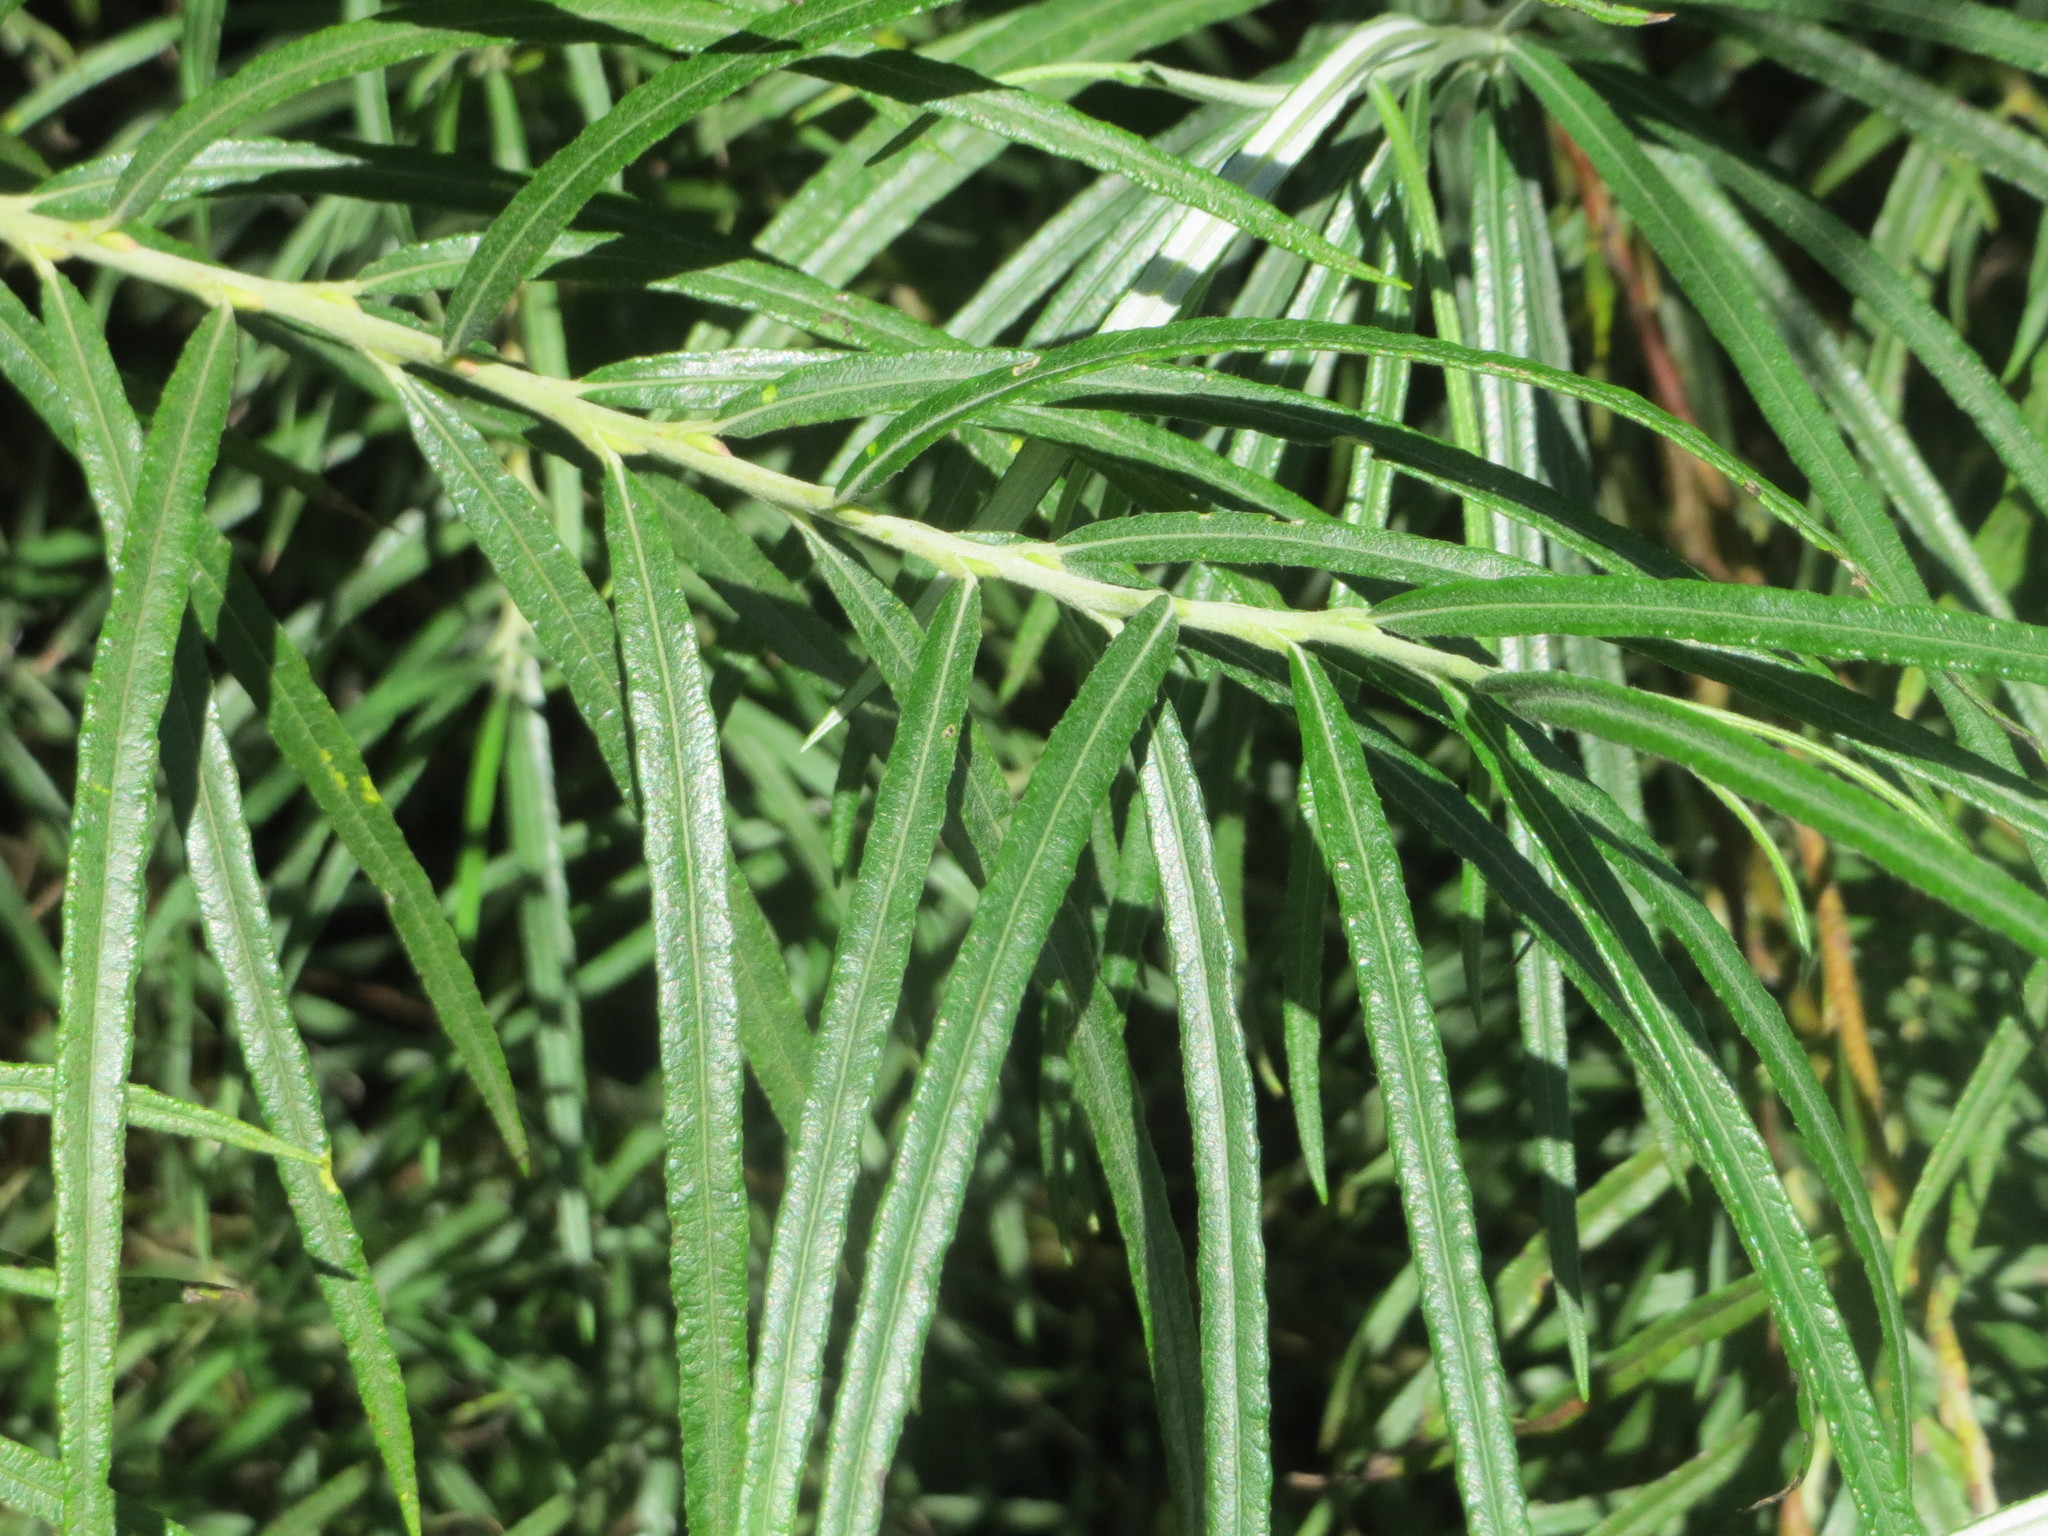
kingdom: Plantae
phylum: Tracheophyta
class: Magnoliopsida
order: Rosales
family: Elaeagnaceae
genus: Hippophae
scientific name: Hippophae rhamnoides
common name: Sea-buckthorn
